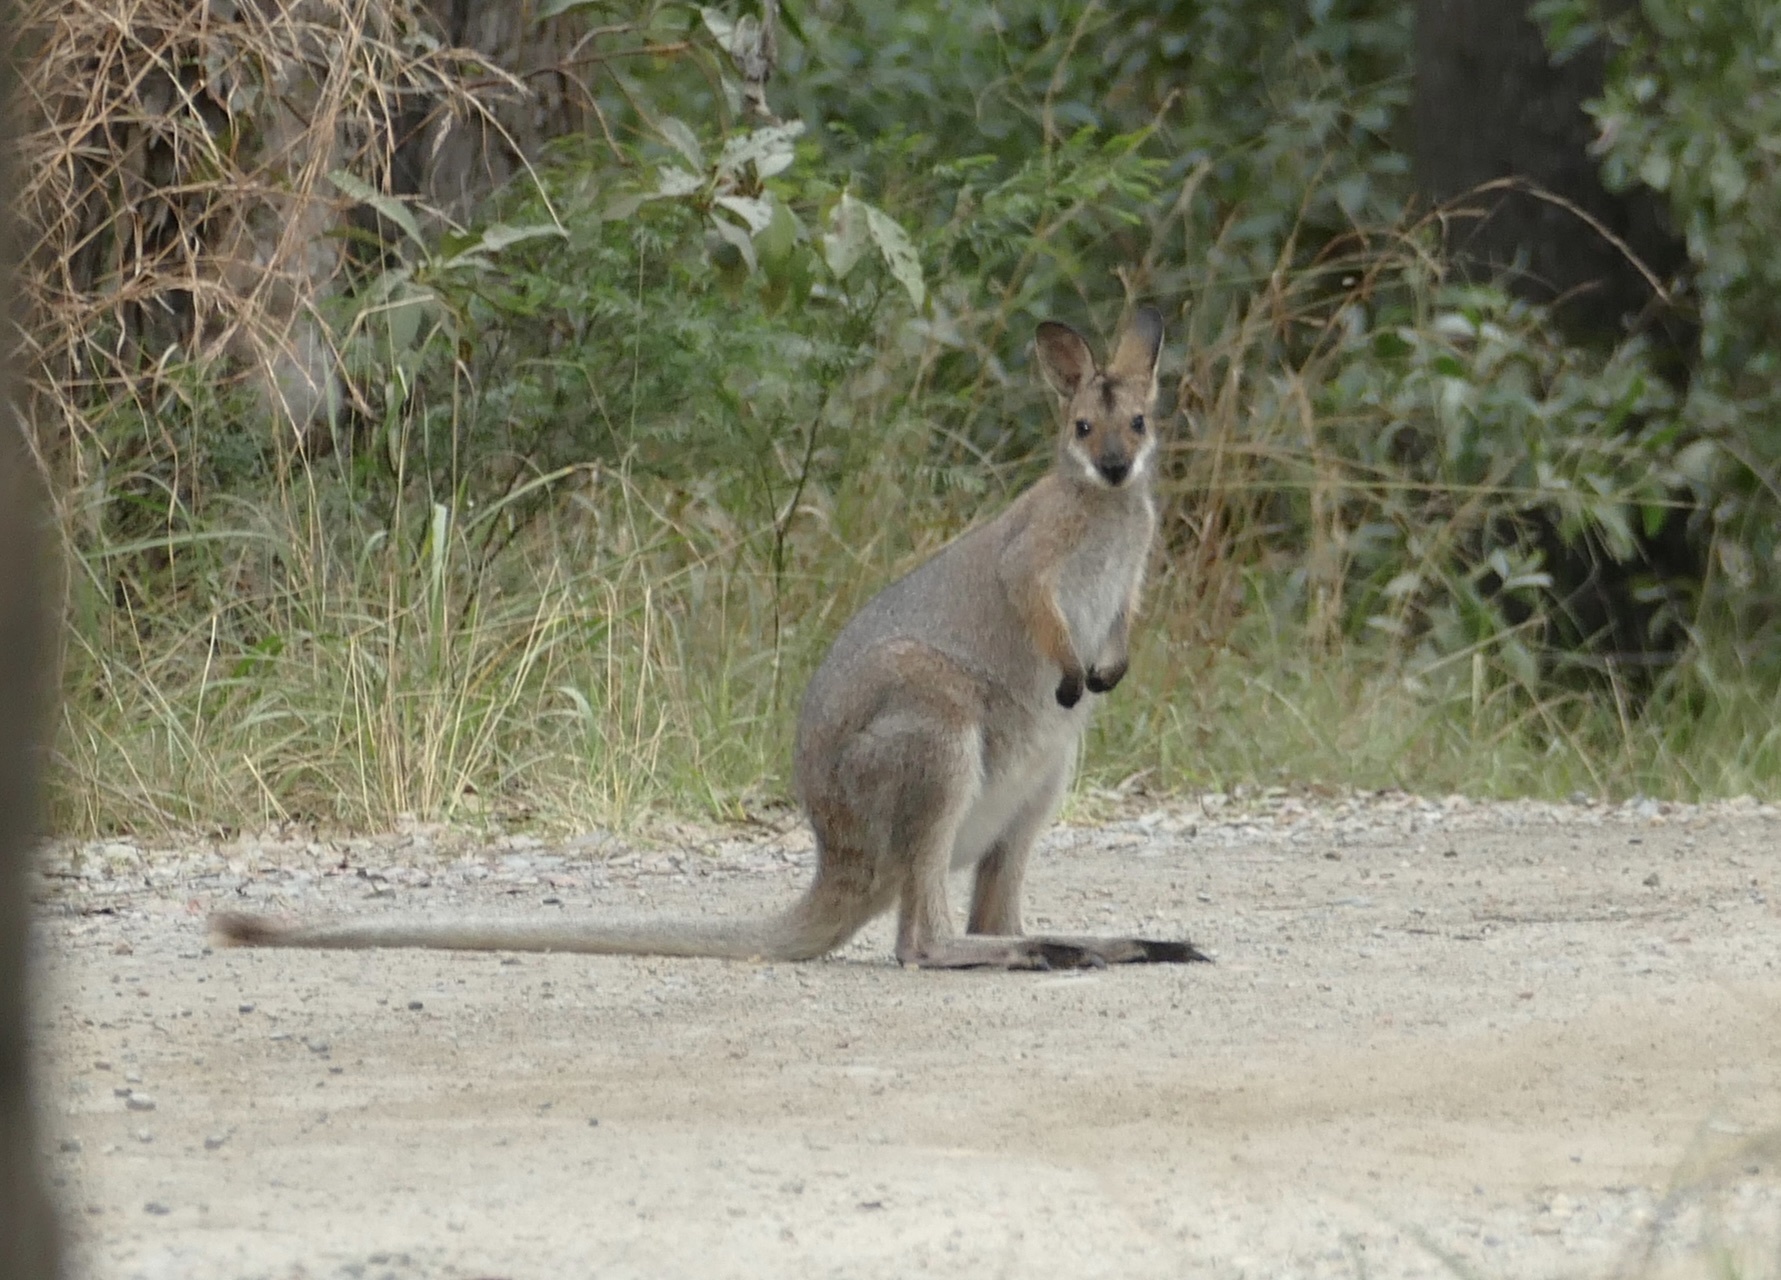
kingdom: Animalia
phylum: Chordata
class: Mammalia
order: Diprotodontia
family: Macropodidae
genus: Notamacropus
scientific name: Notamacropus rufogriseus
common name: Red-necked wallaby
